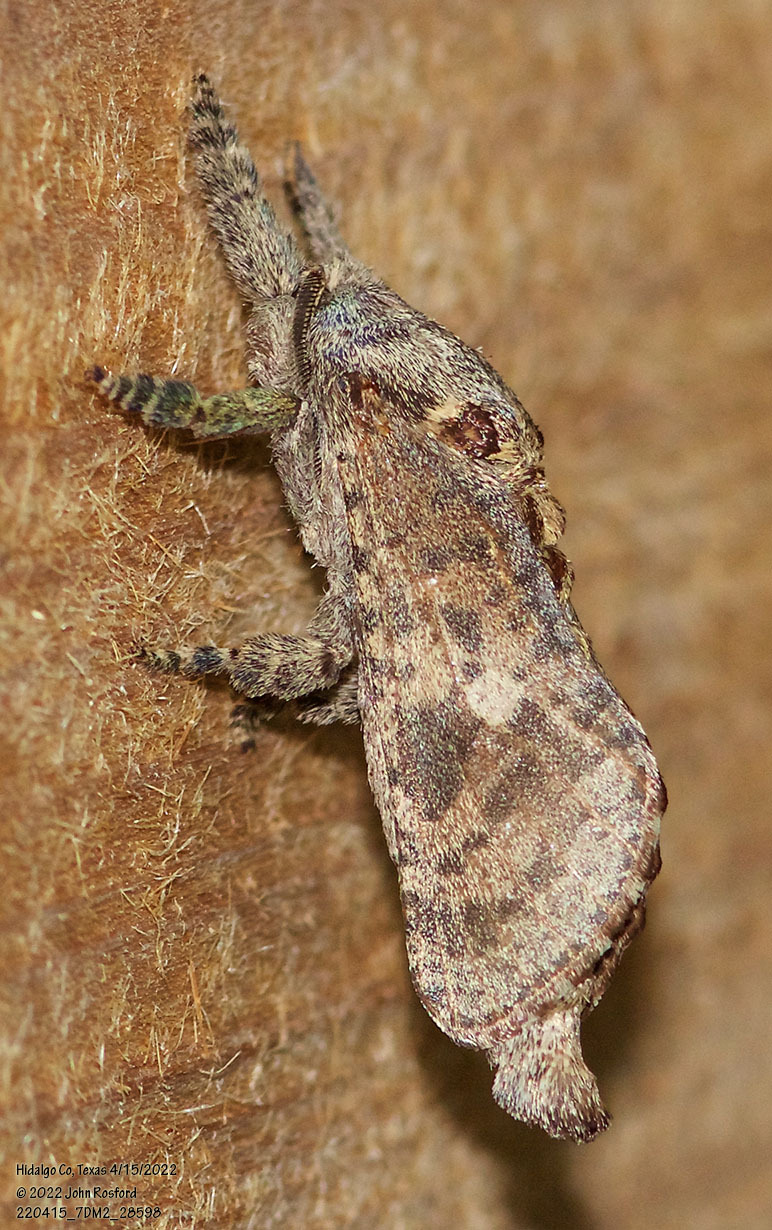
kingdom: Animalia
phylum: Arthropoda
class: Insecta
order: Lepidoptera
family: Cossidae
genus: Givira
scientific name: Givira arbeloides
